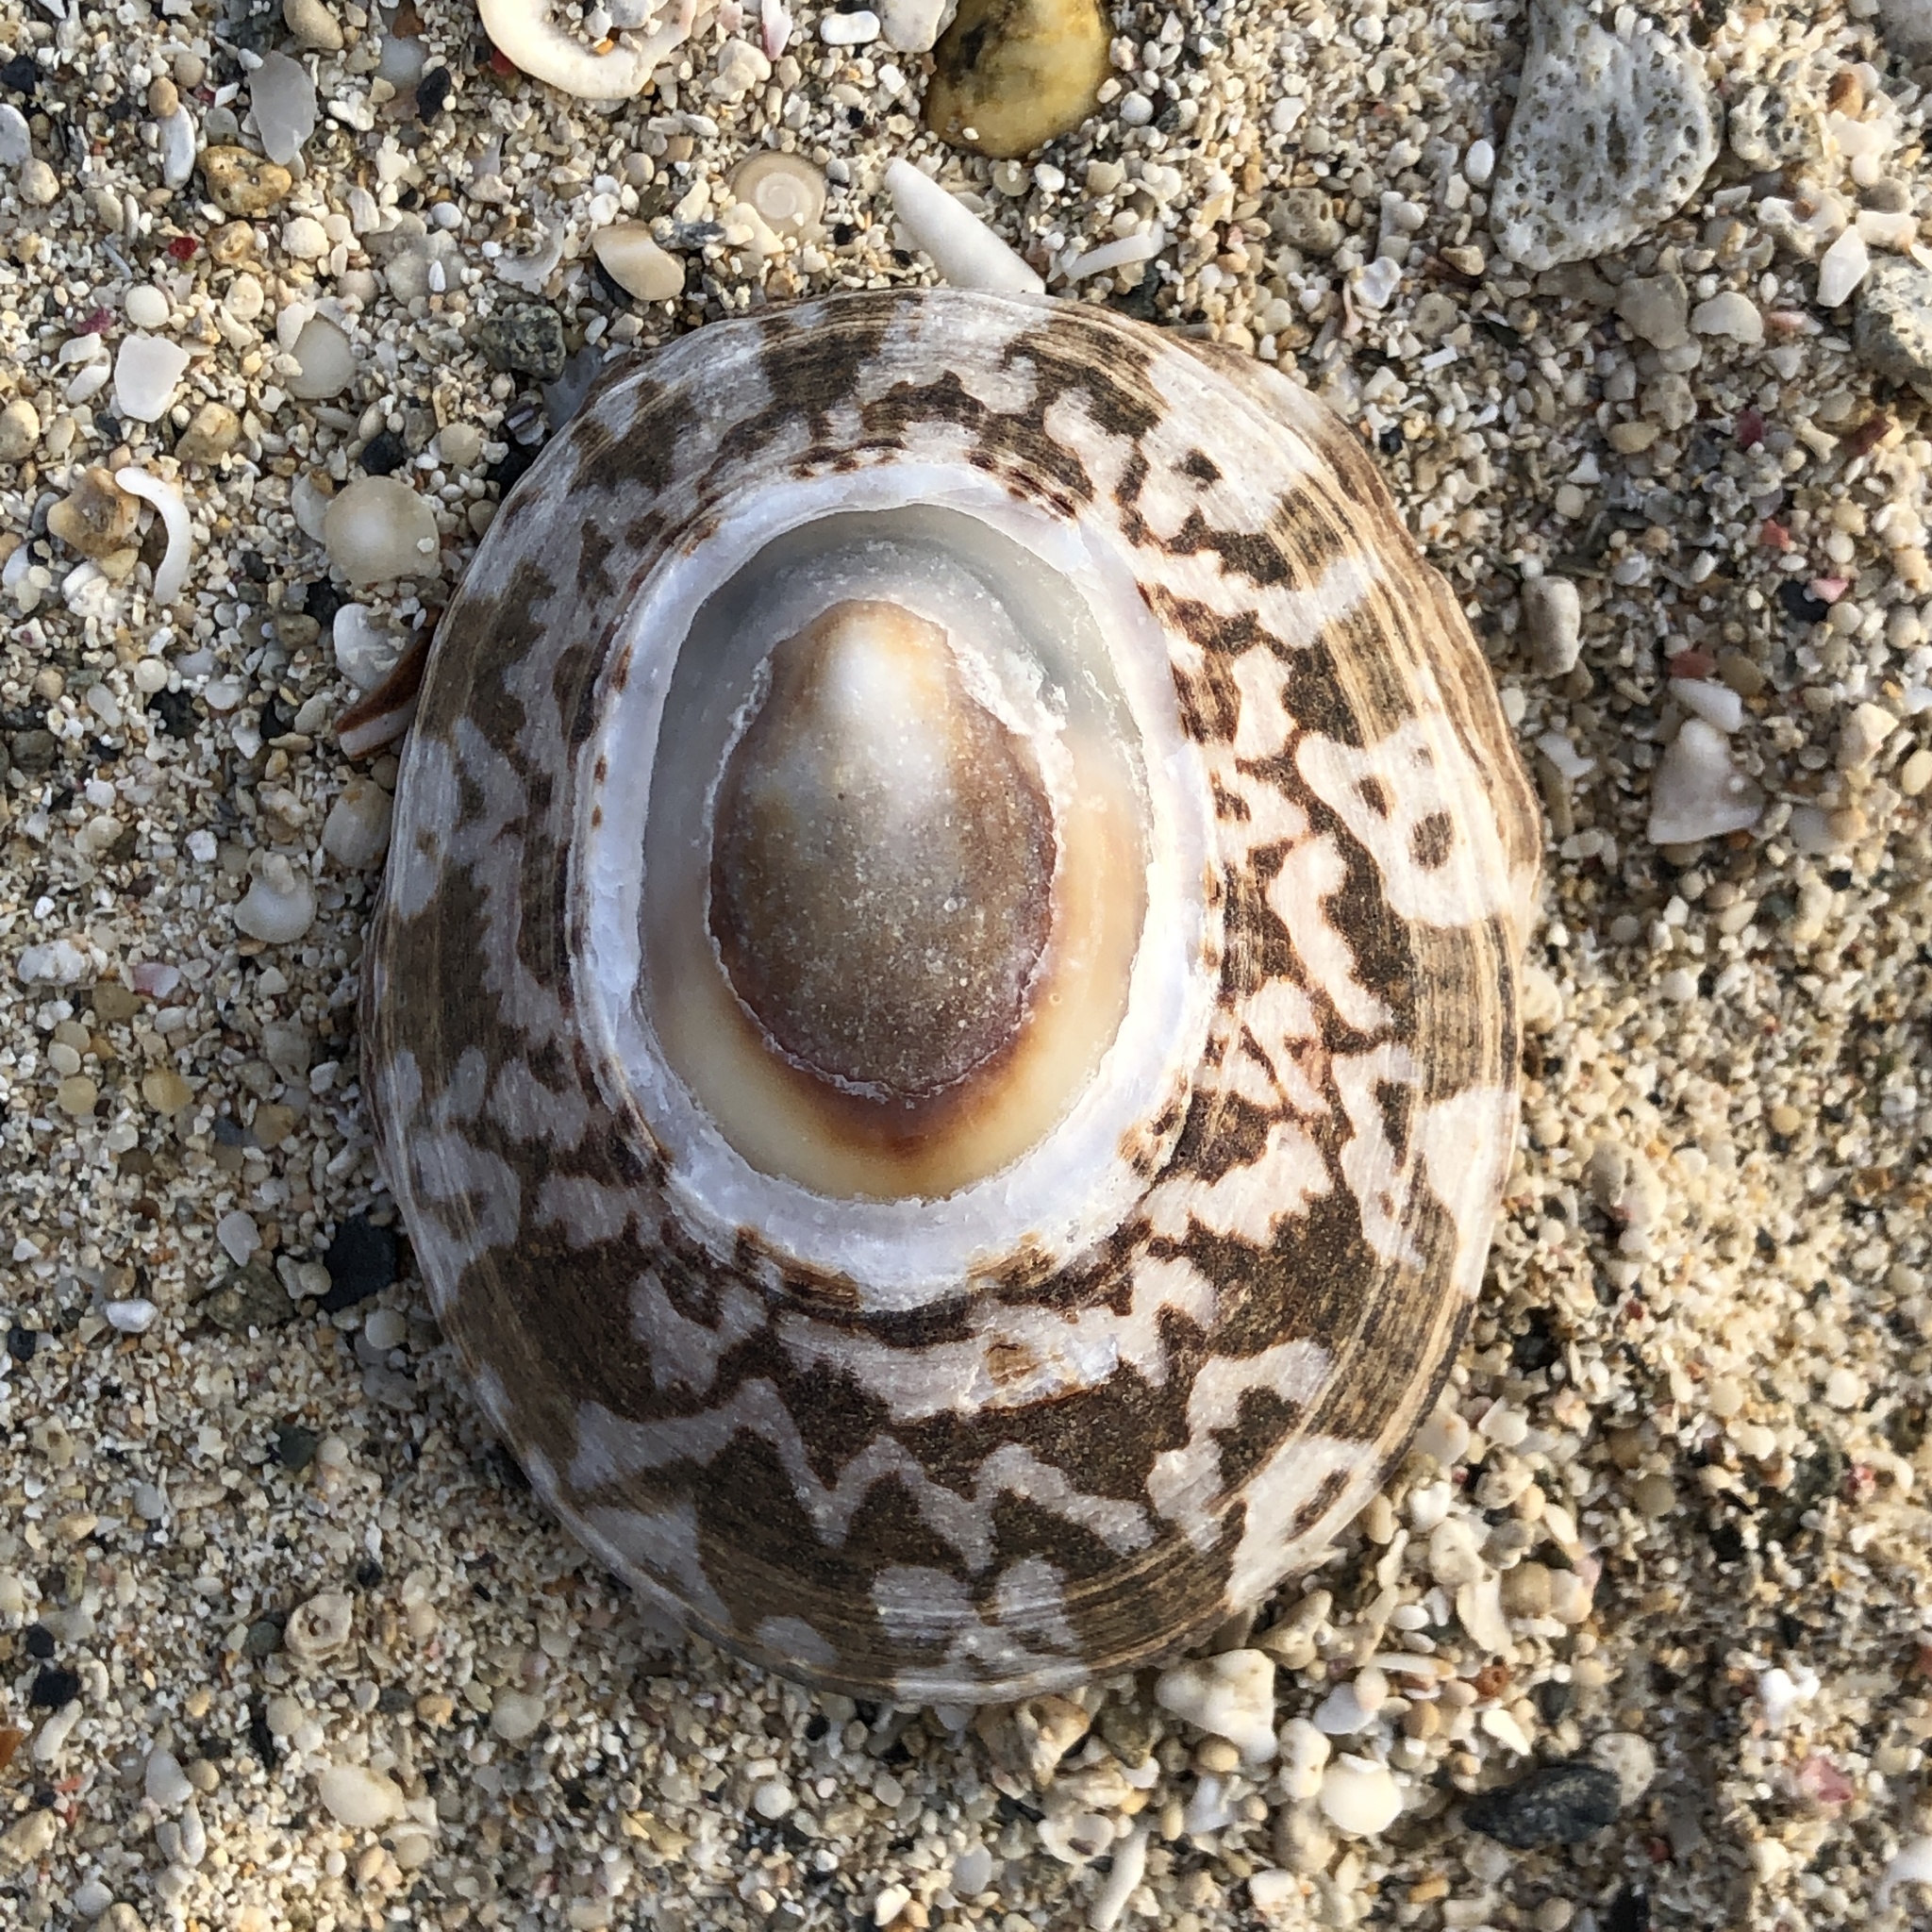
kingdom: Animalia
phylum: Mollusca
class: Gastropoda
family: Nacellidae
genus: Cellana
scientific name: Cellana testudinaria
